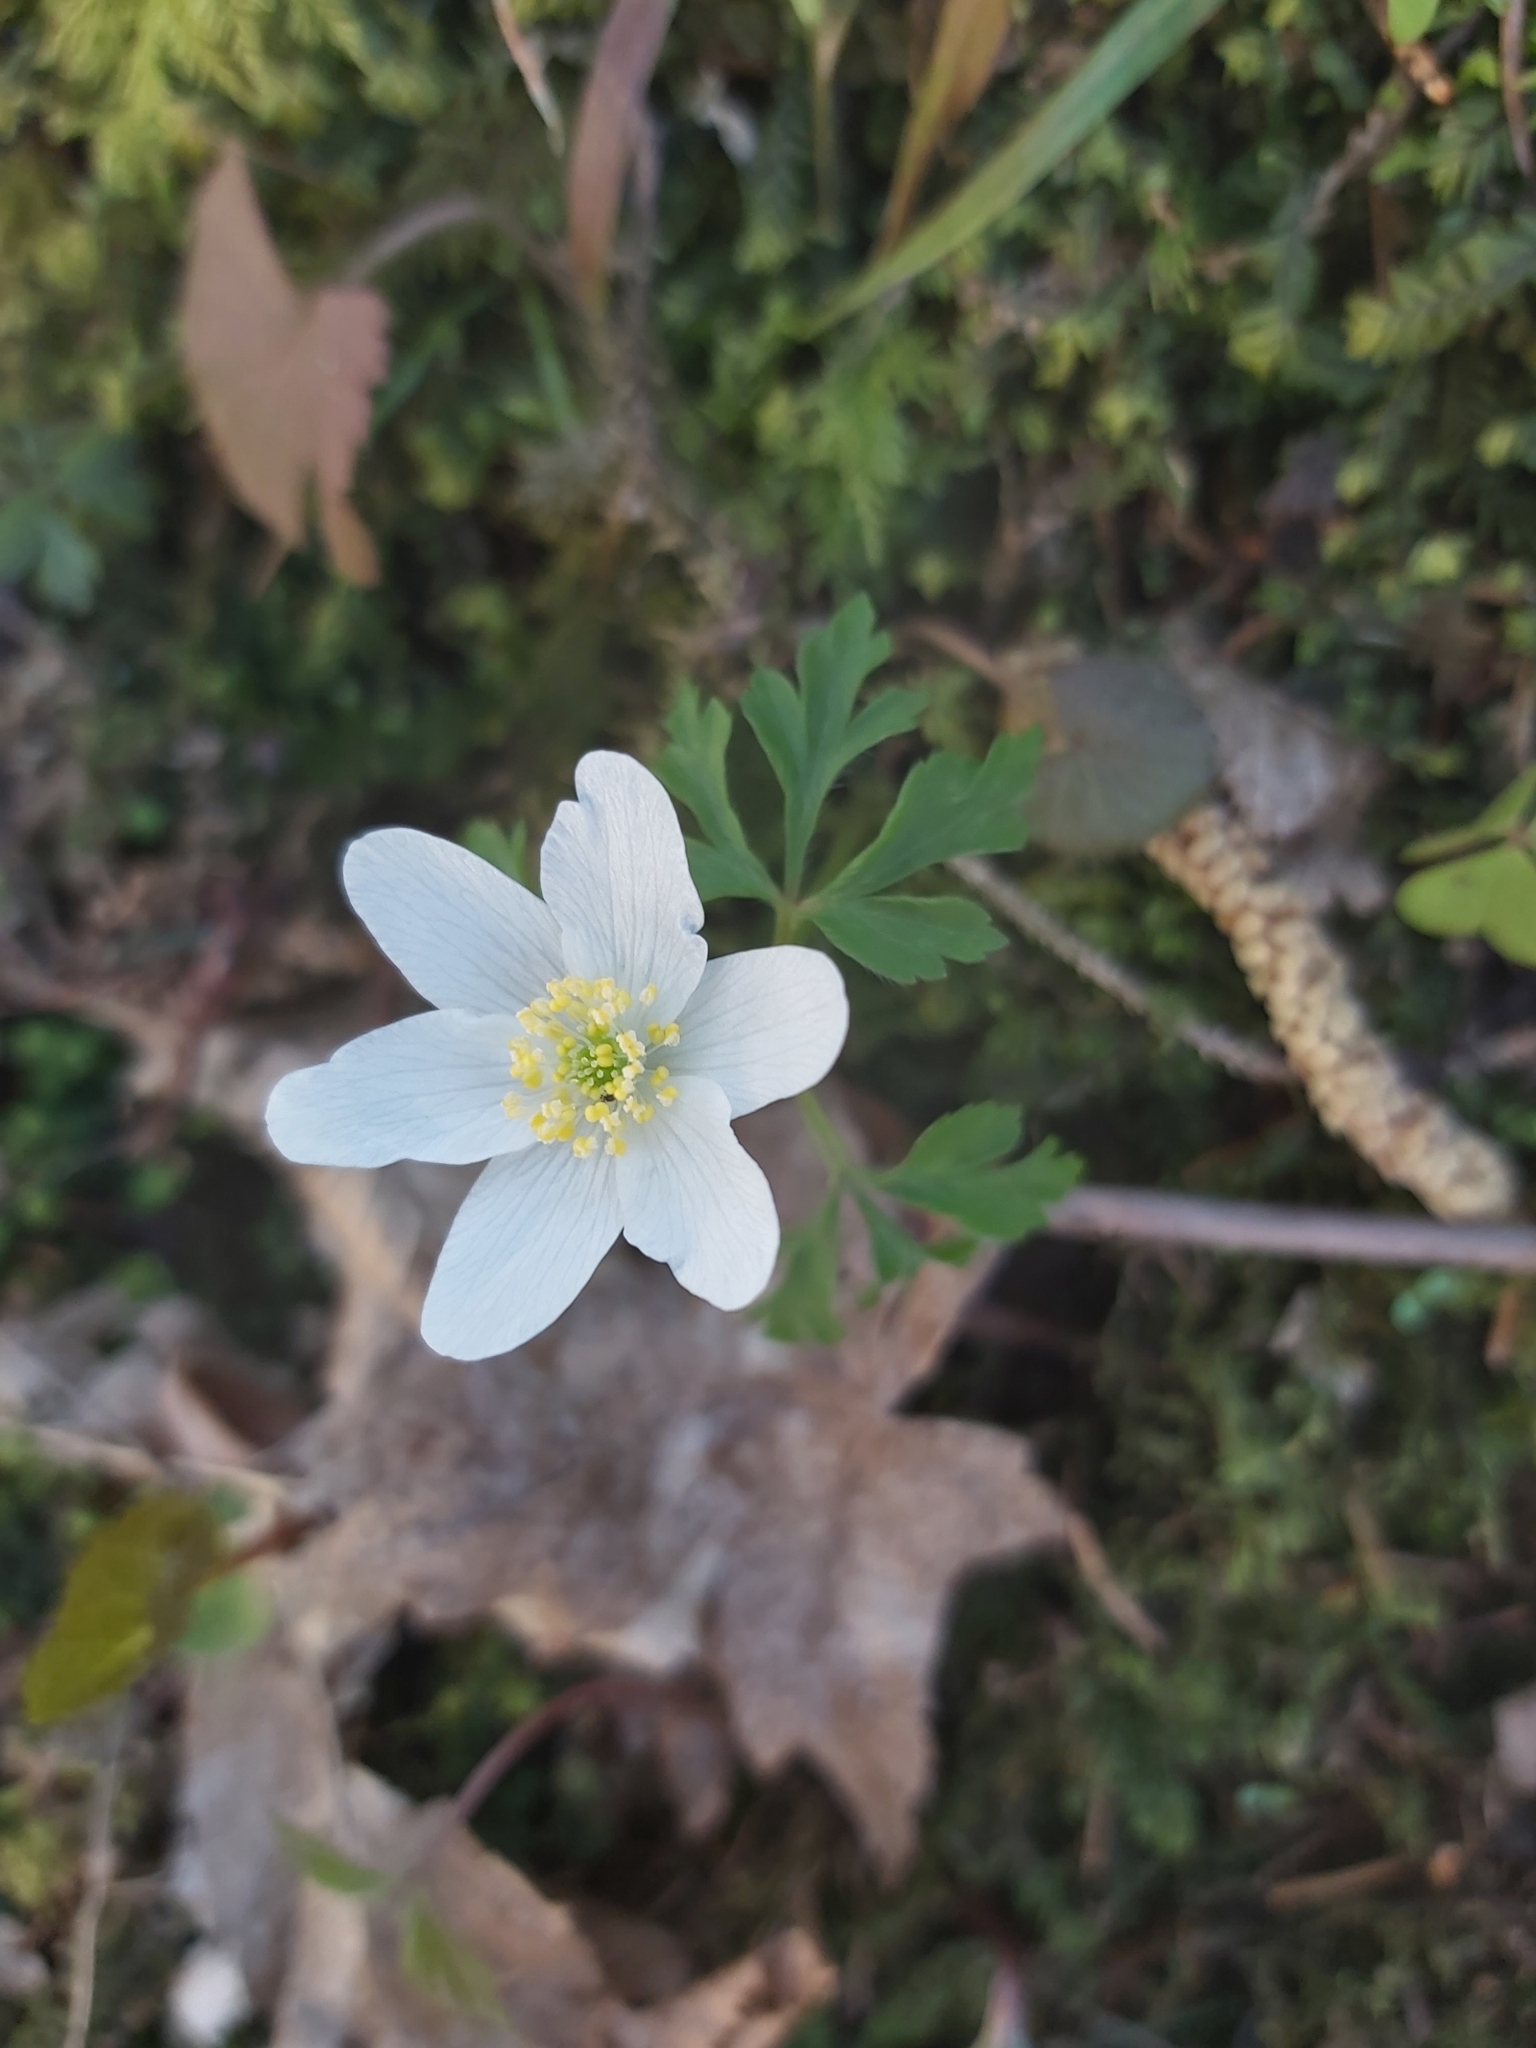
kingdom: Plantae
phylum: Tracheophyta
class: Magnoliopsida
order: Ranunculales
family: Ranunculaceae
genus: Anemone
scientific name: Anemone nemorosa
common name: Wood anemone
